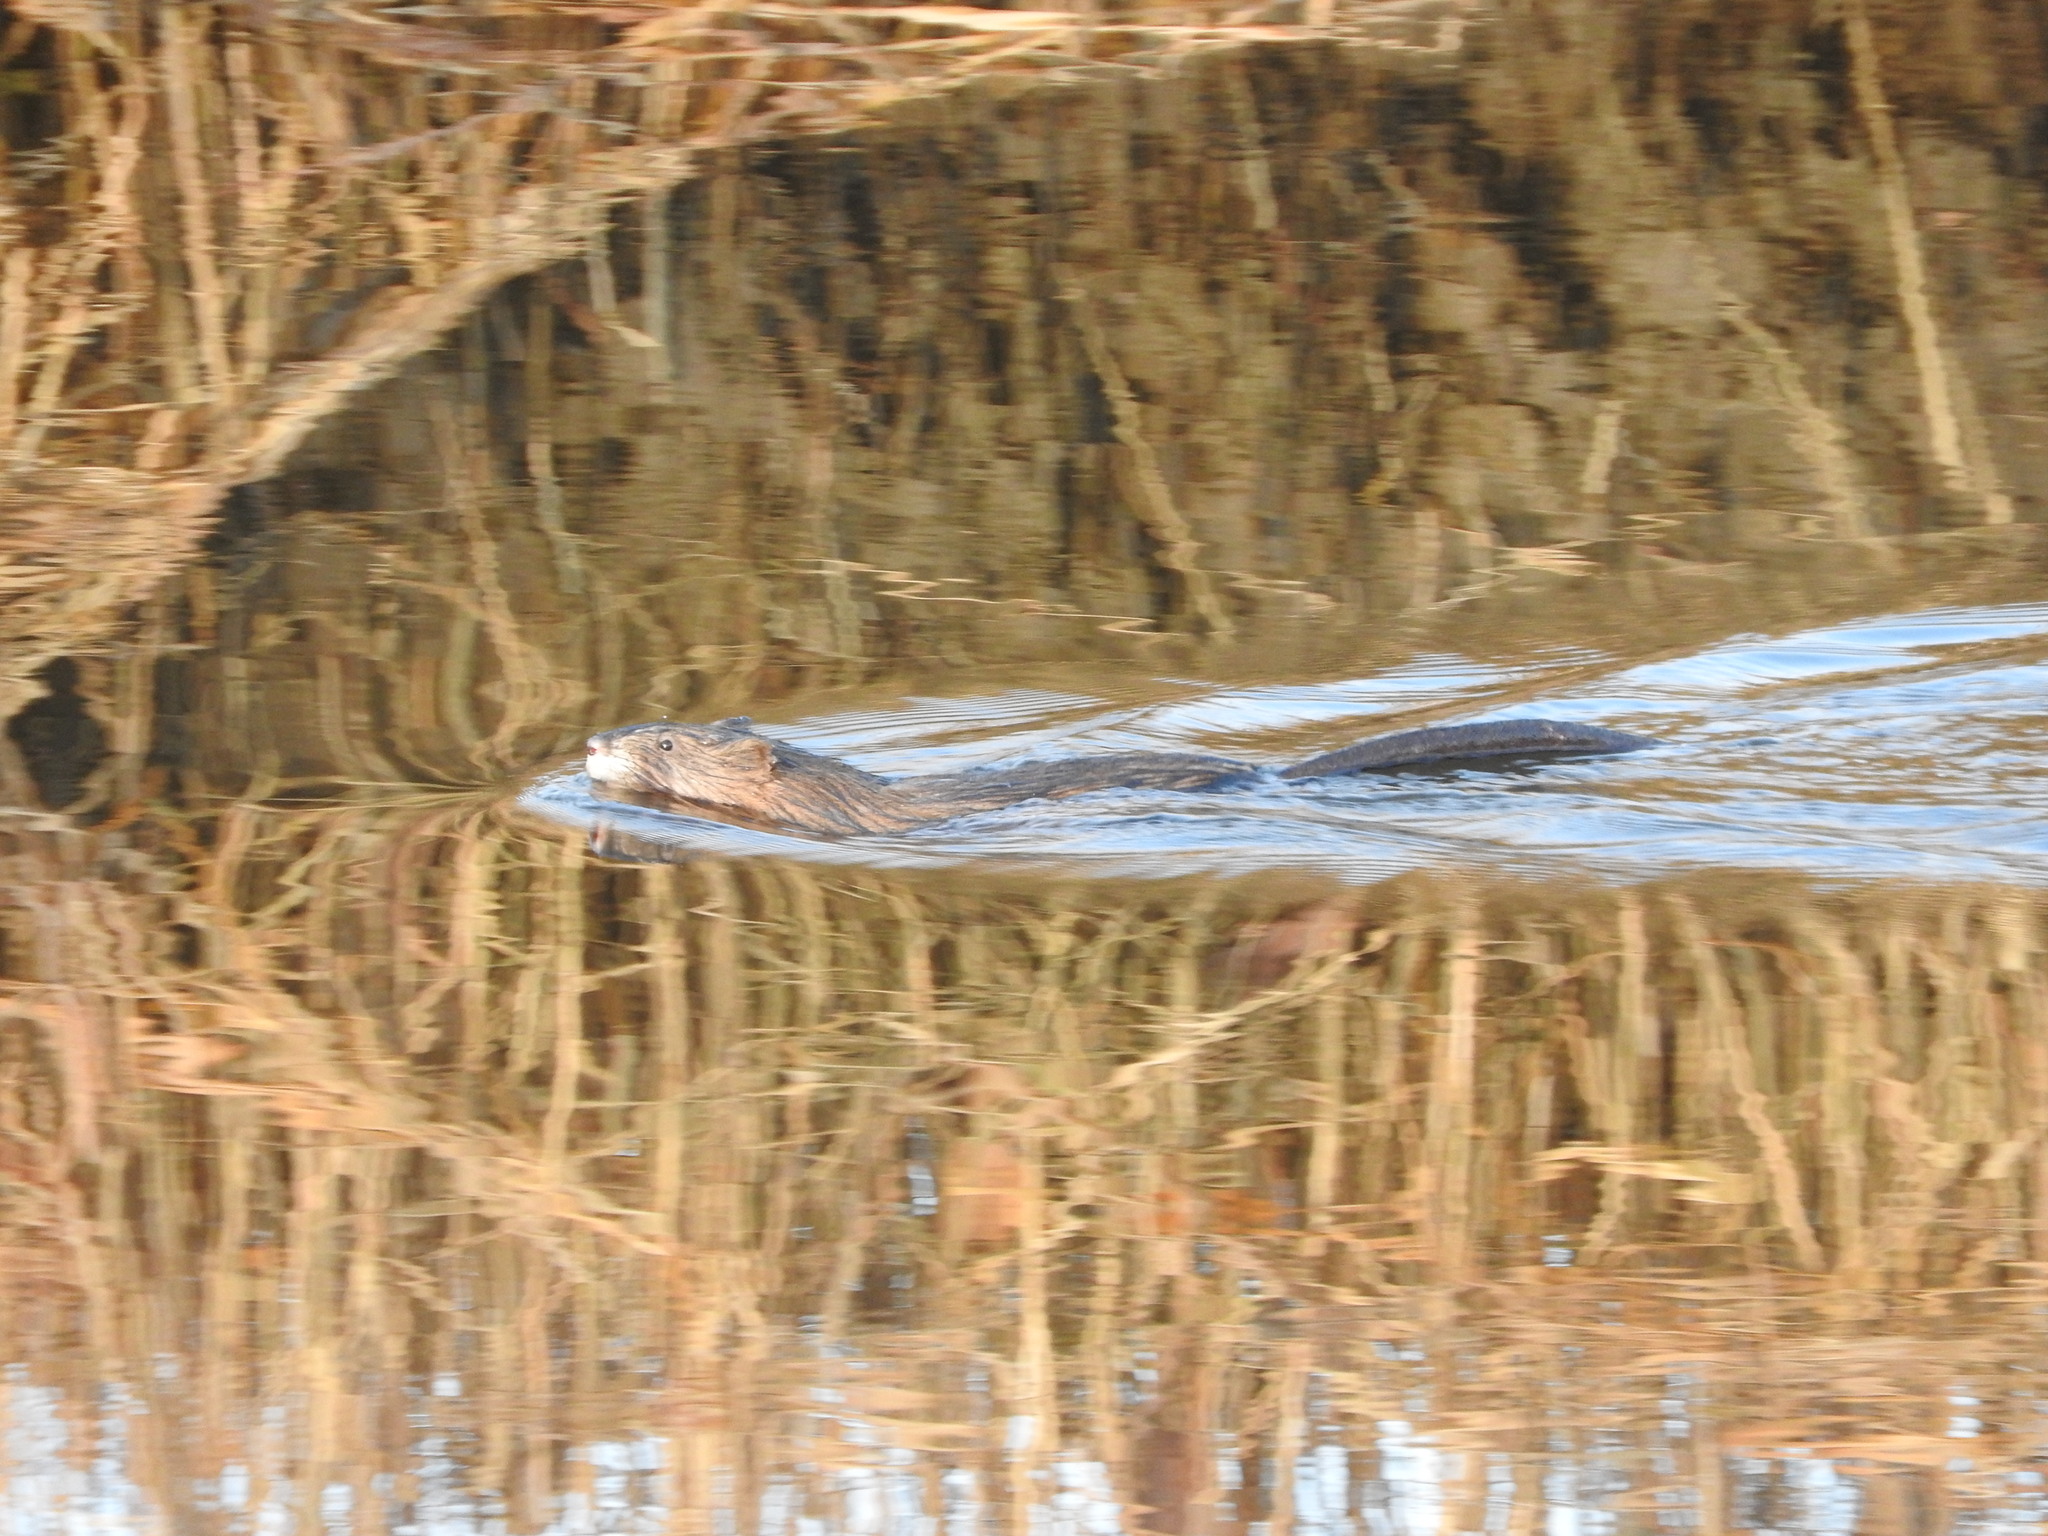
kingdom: Animalia
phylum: Chordata
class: Mammalia
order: Rodentia
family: Cricetidae
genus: Ondatra
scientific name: Ondatra zibethicus
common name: Muskrat
